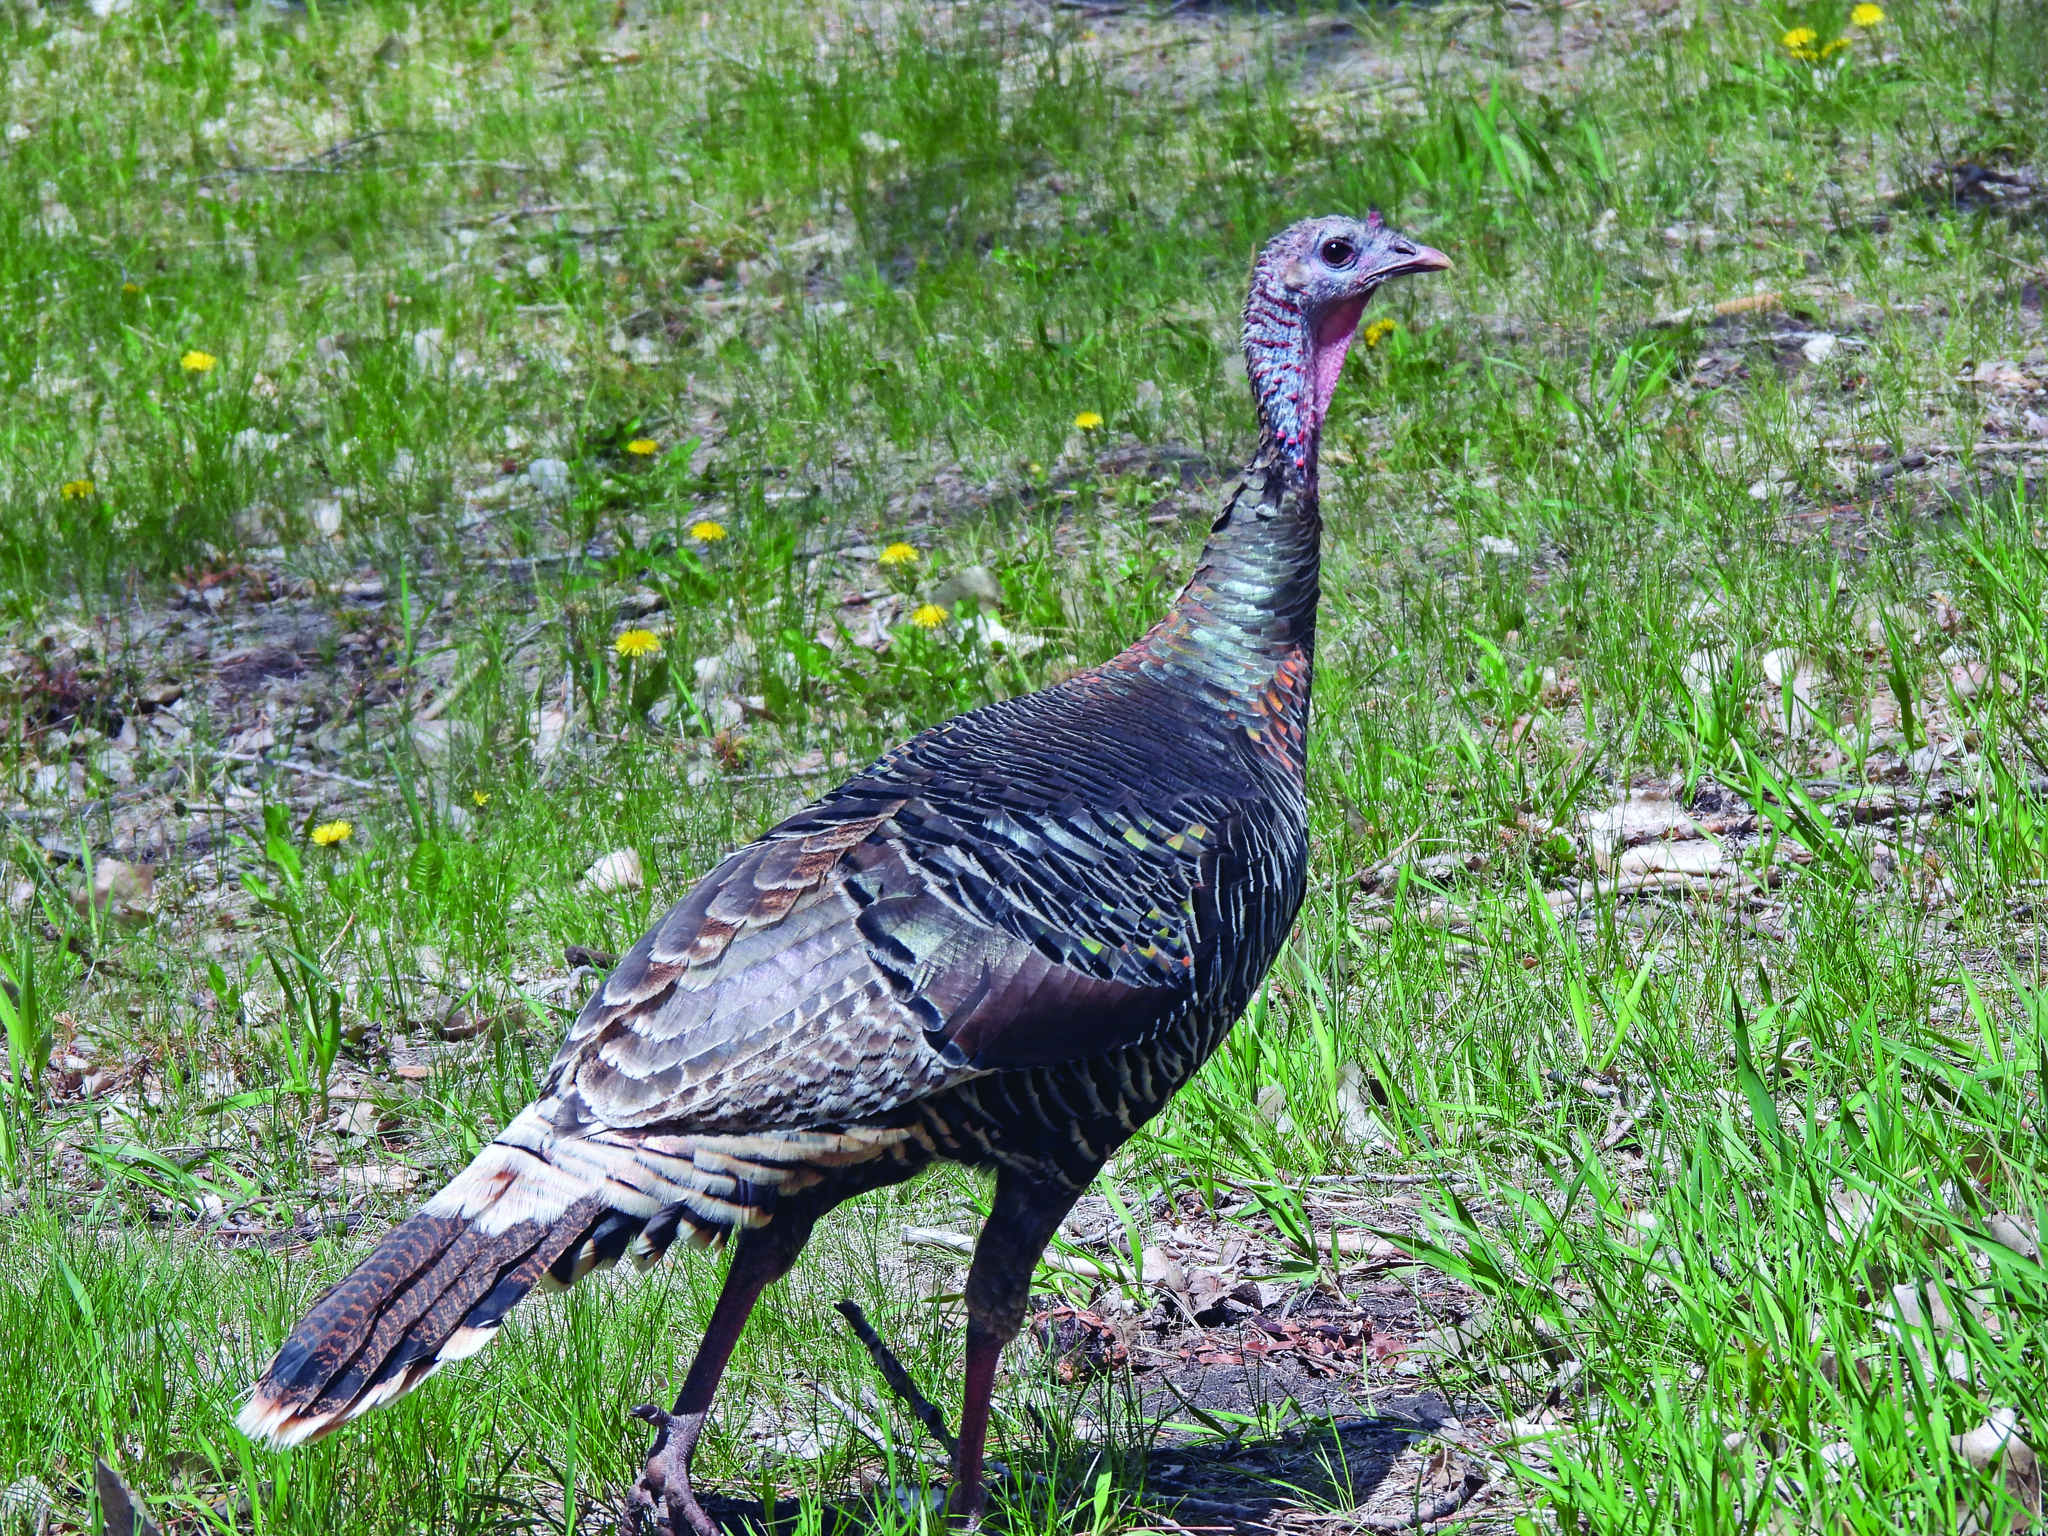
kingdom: Animalia
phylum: Chordata
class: Aves
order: Galliformes
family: Phasianidae
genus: Meleagris
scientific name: Meleagris gallopavo
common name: Wild turkey
